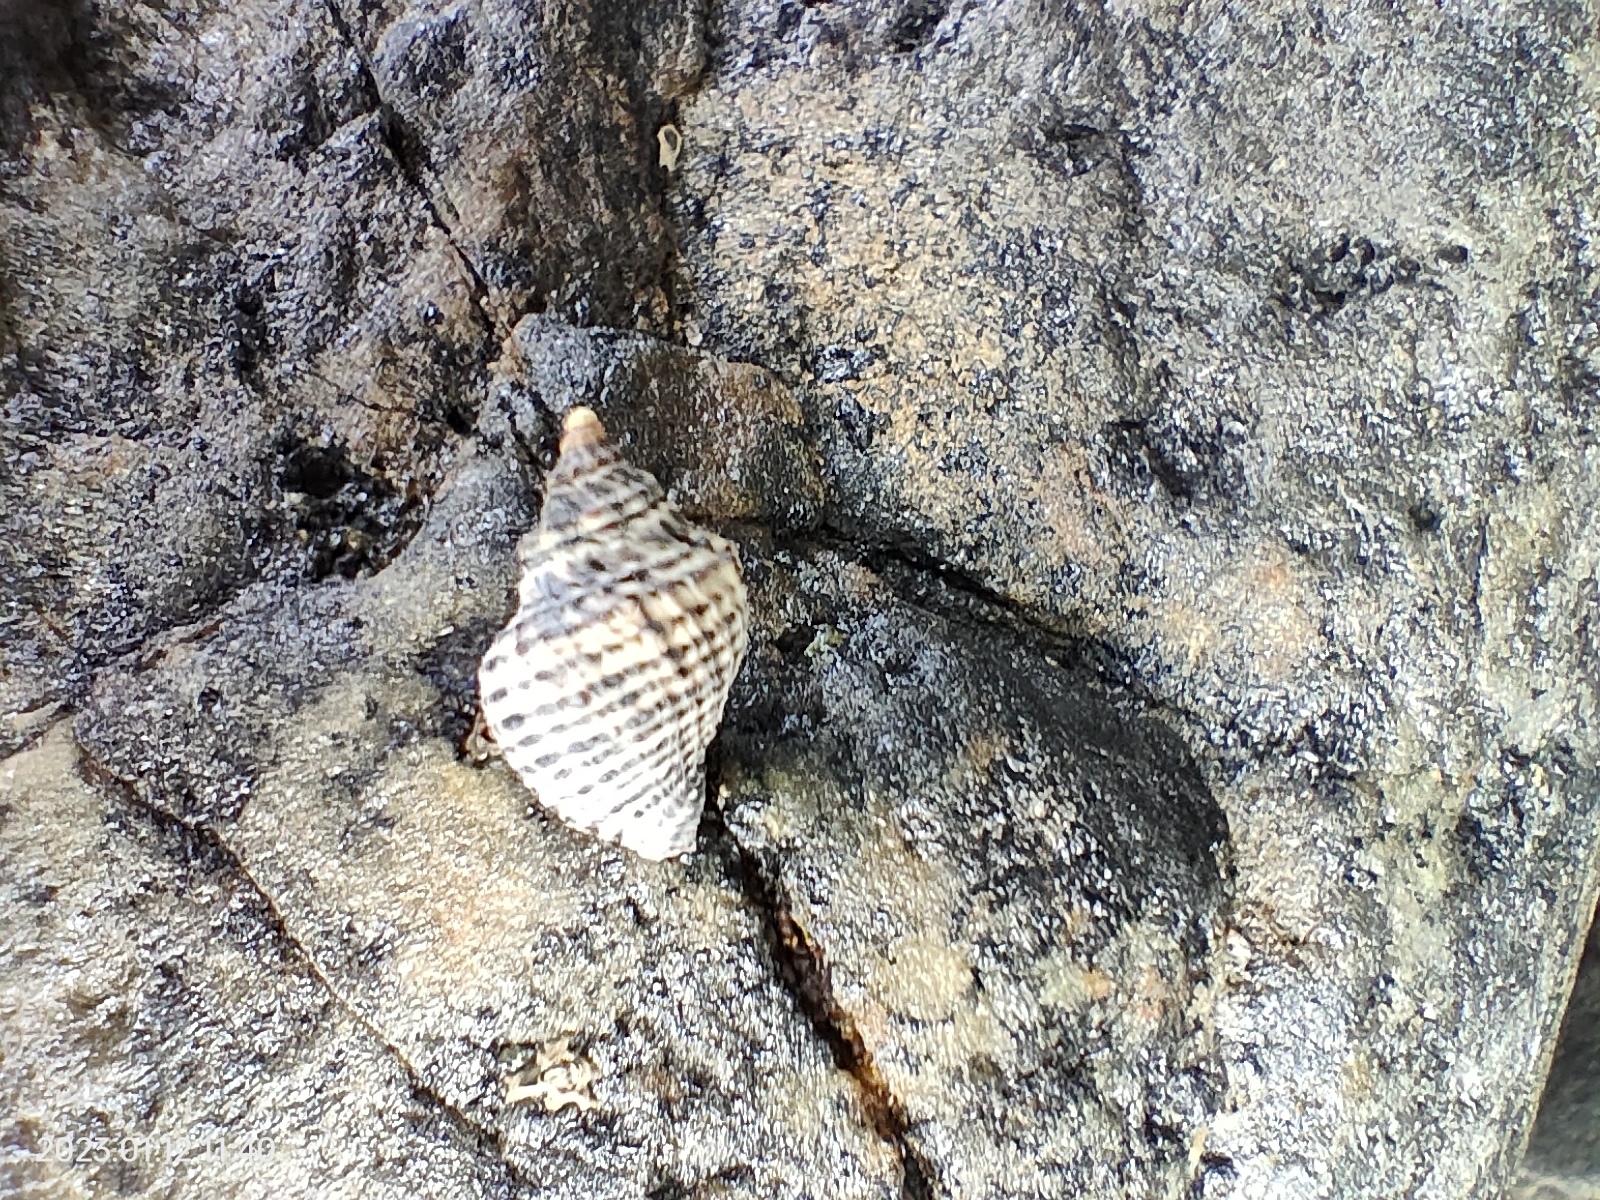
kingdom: Animalia
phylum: Mollusca
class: Gastropoda
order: Neogastropoda
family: Muricidae
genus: Haustrum
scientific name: Haustrum albomarginatum
